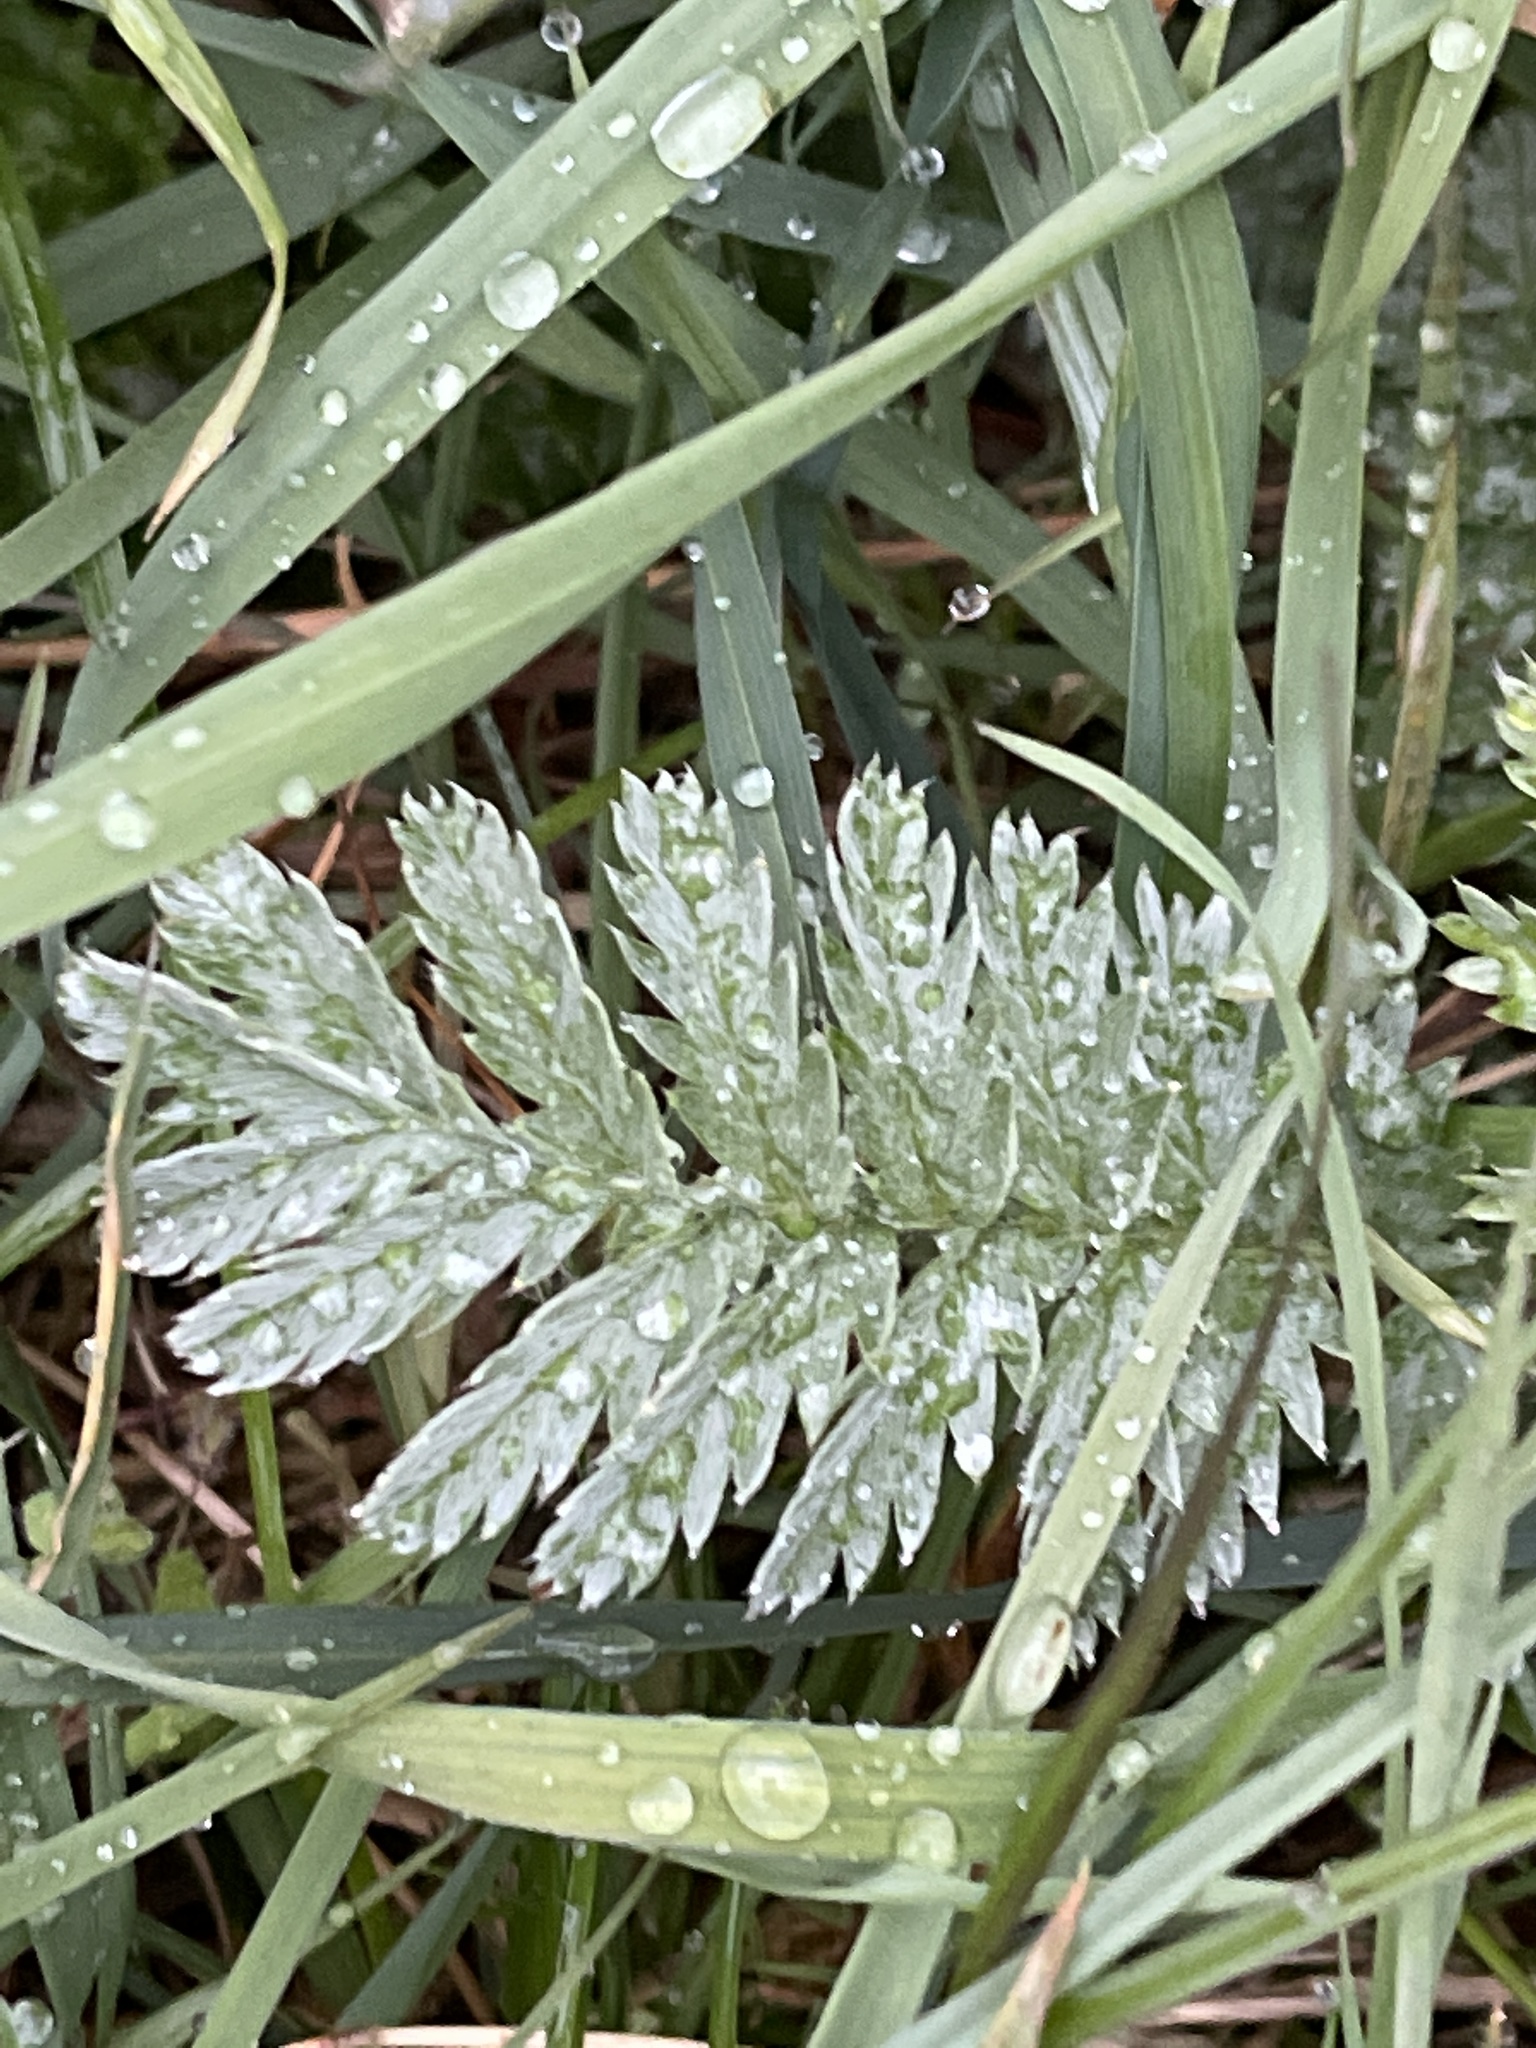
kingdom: Plantae
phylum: Tracheophyta
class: Magnoliopsida
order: Rosales
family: Rosaceae
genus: Argentina
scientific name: Argentina anserina
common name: Common silverweed
